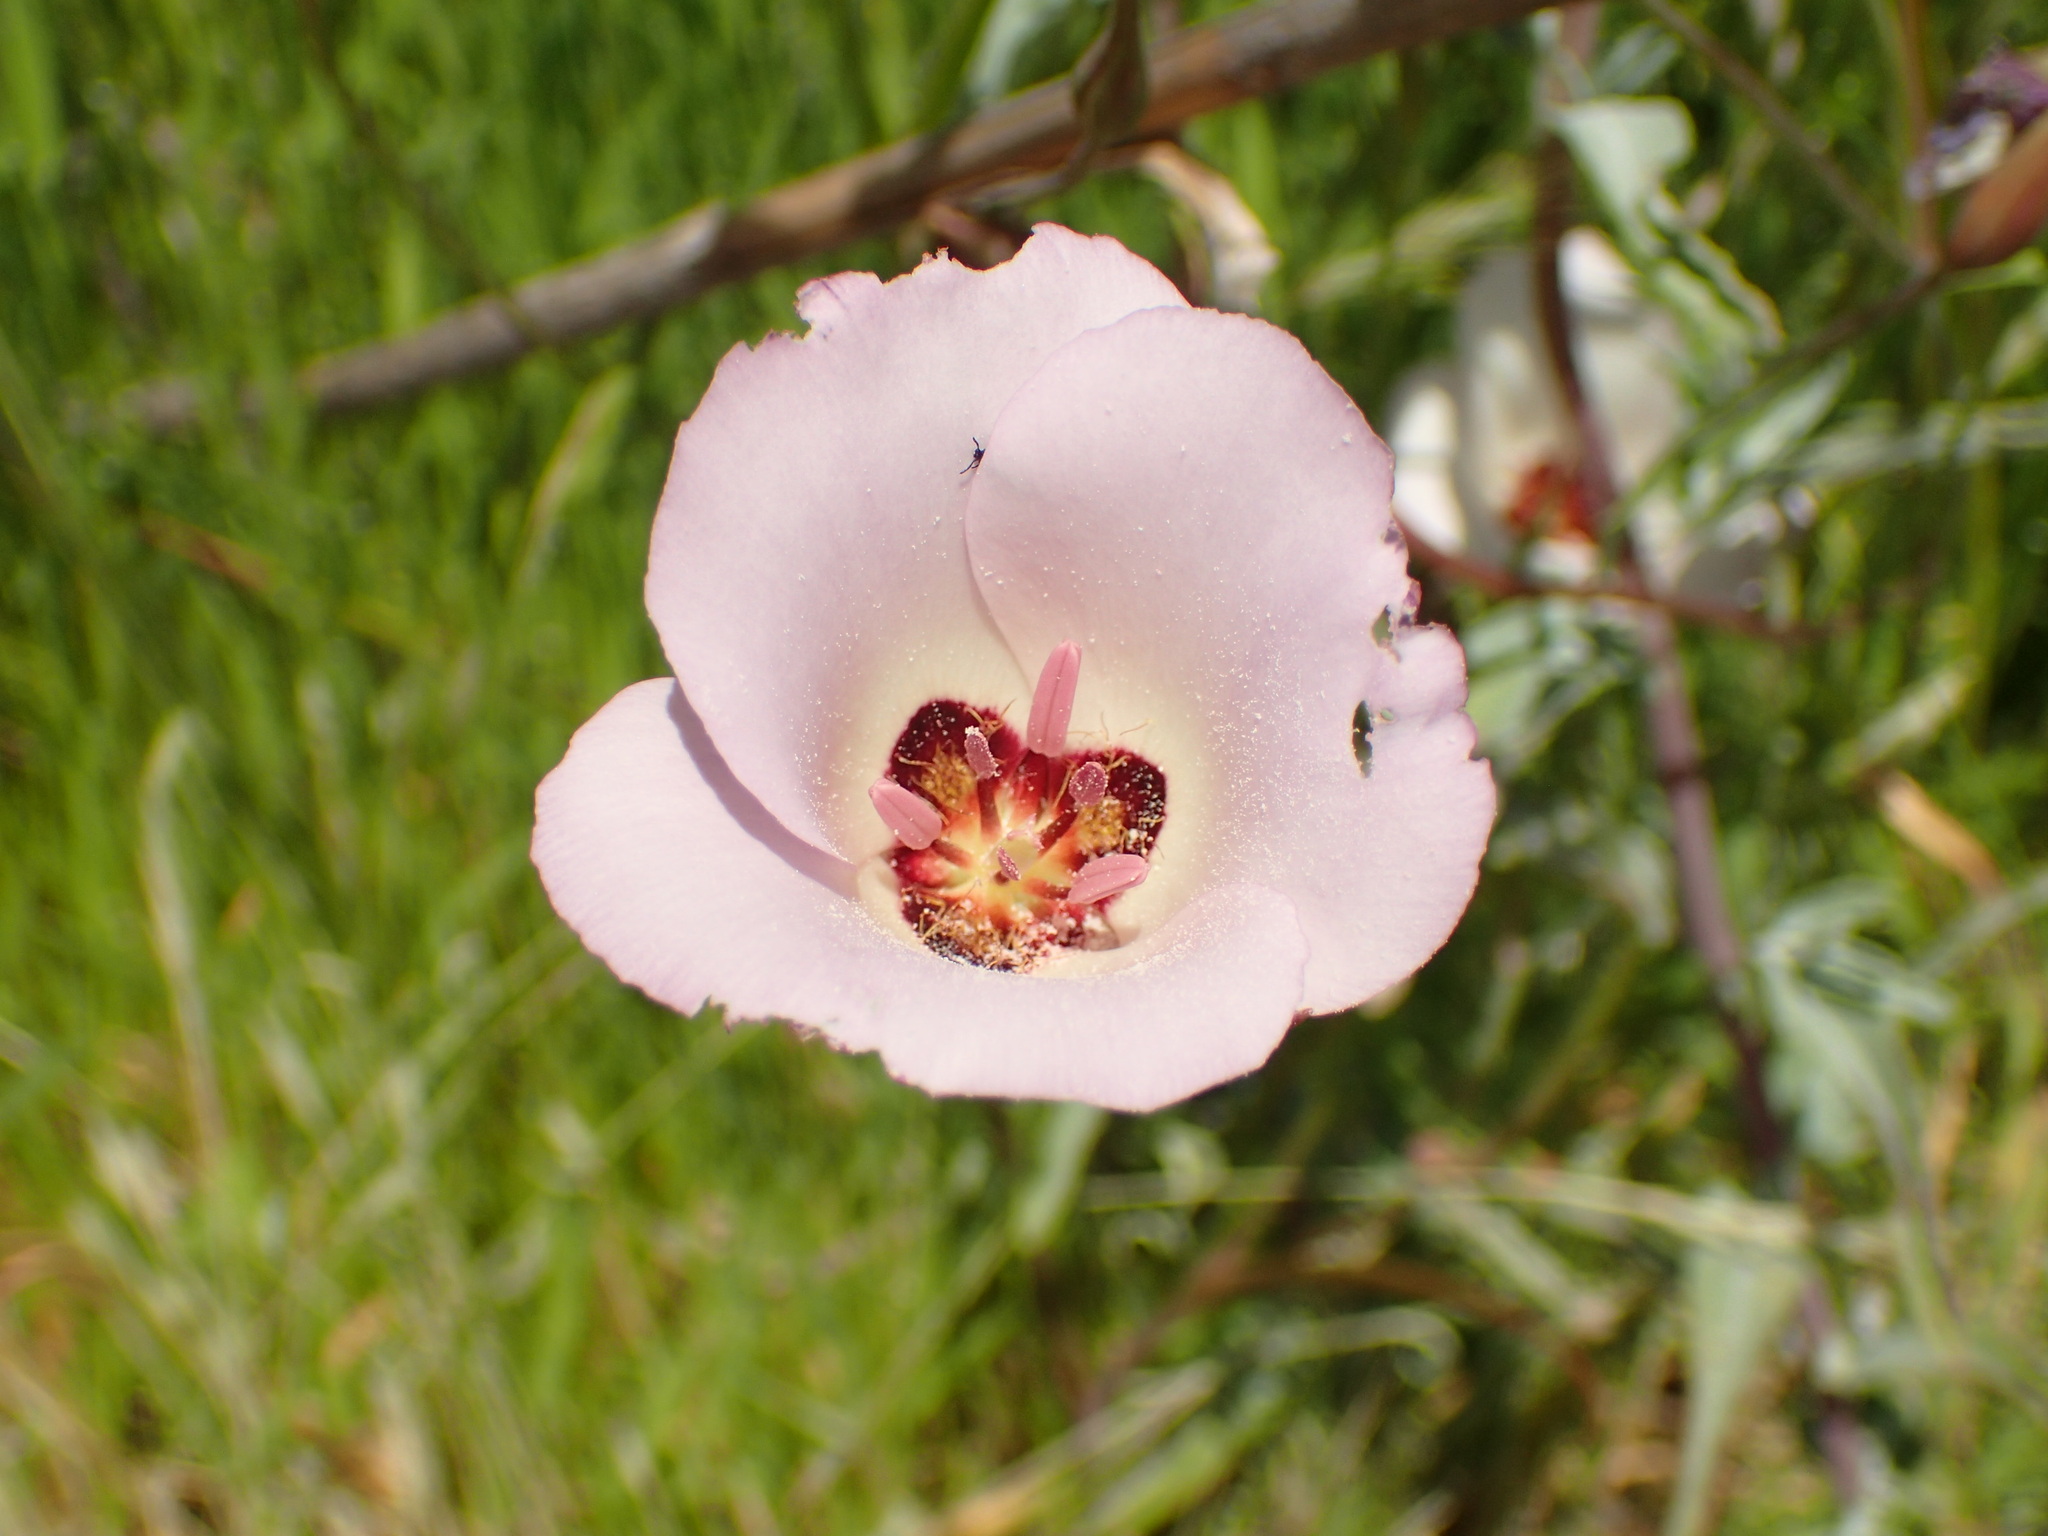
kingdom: Plantae
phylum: Tracheophyta
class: Liliopsida
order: Liliales
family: Liliaceae
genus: Calochortus
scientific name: Calochortus catalinae
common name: Catalina mariposa-lily
